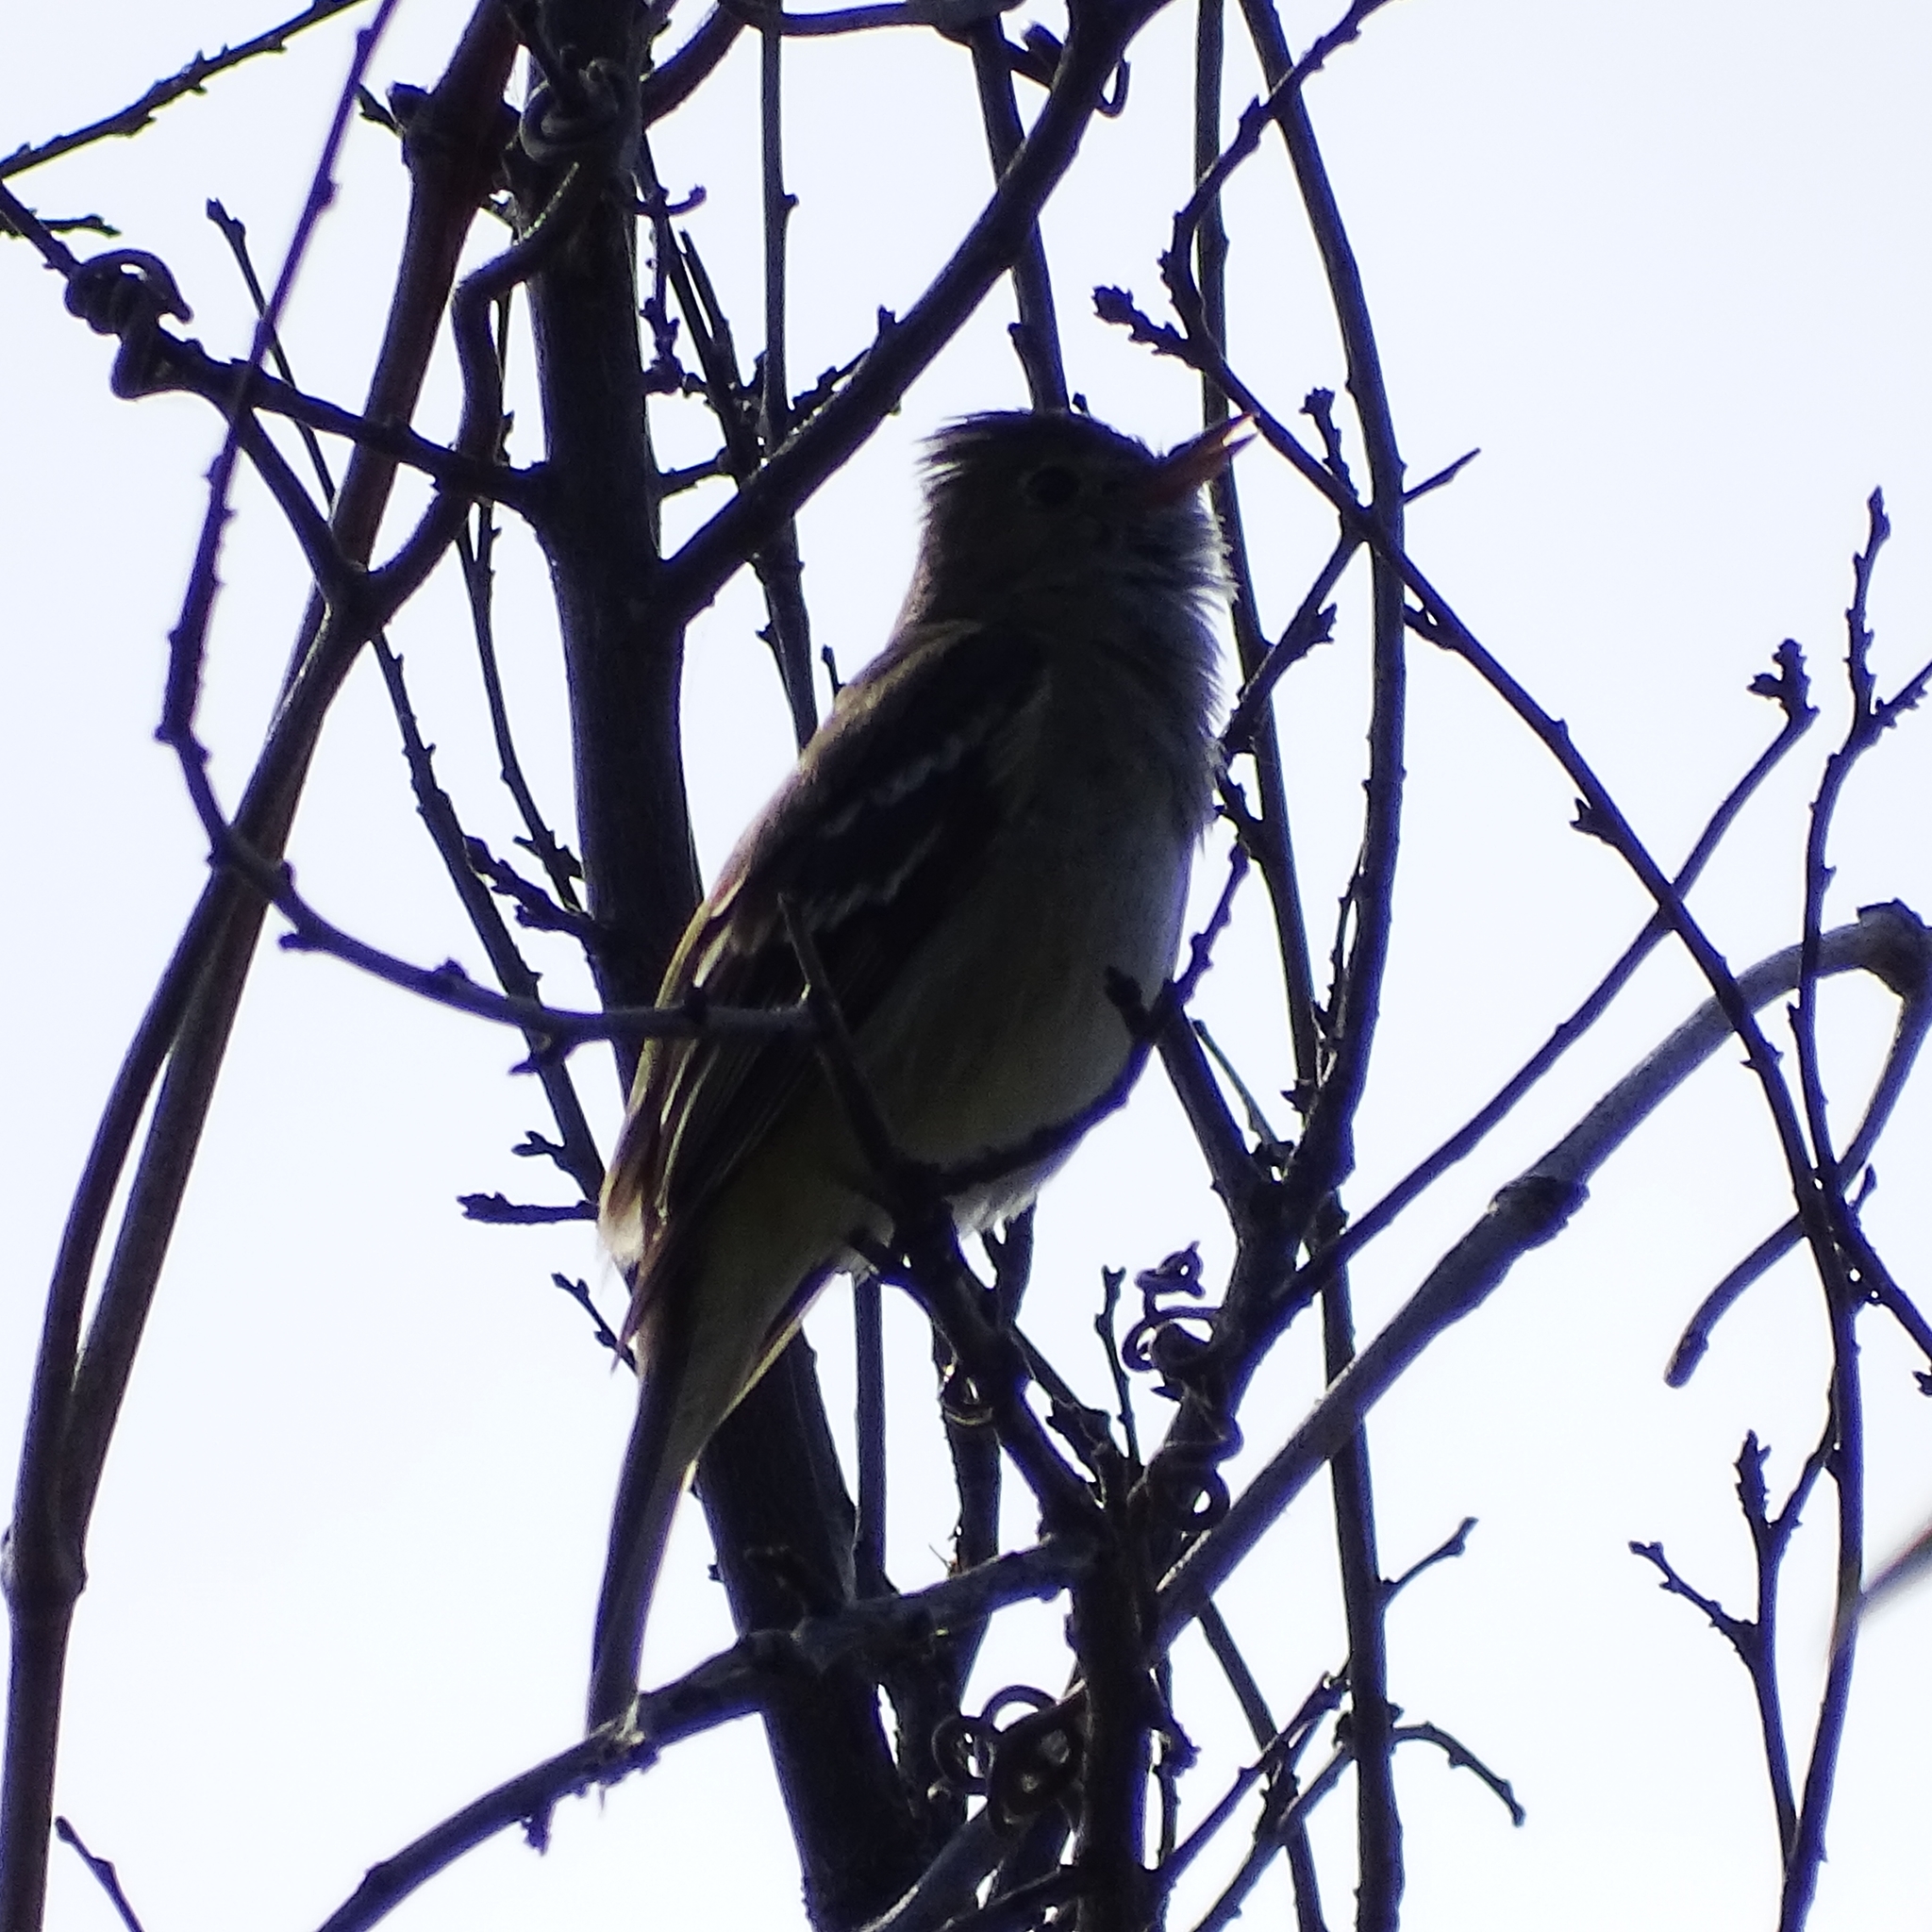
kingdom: Animalia
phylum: Chordata
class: Aves
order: Passeriformes
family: Tyrannidae
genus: Elaenia
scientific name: Elaenia albiceps
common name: White-crested elaenia
